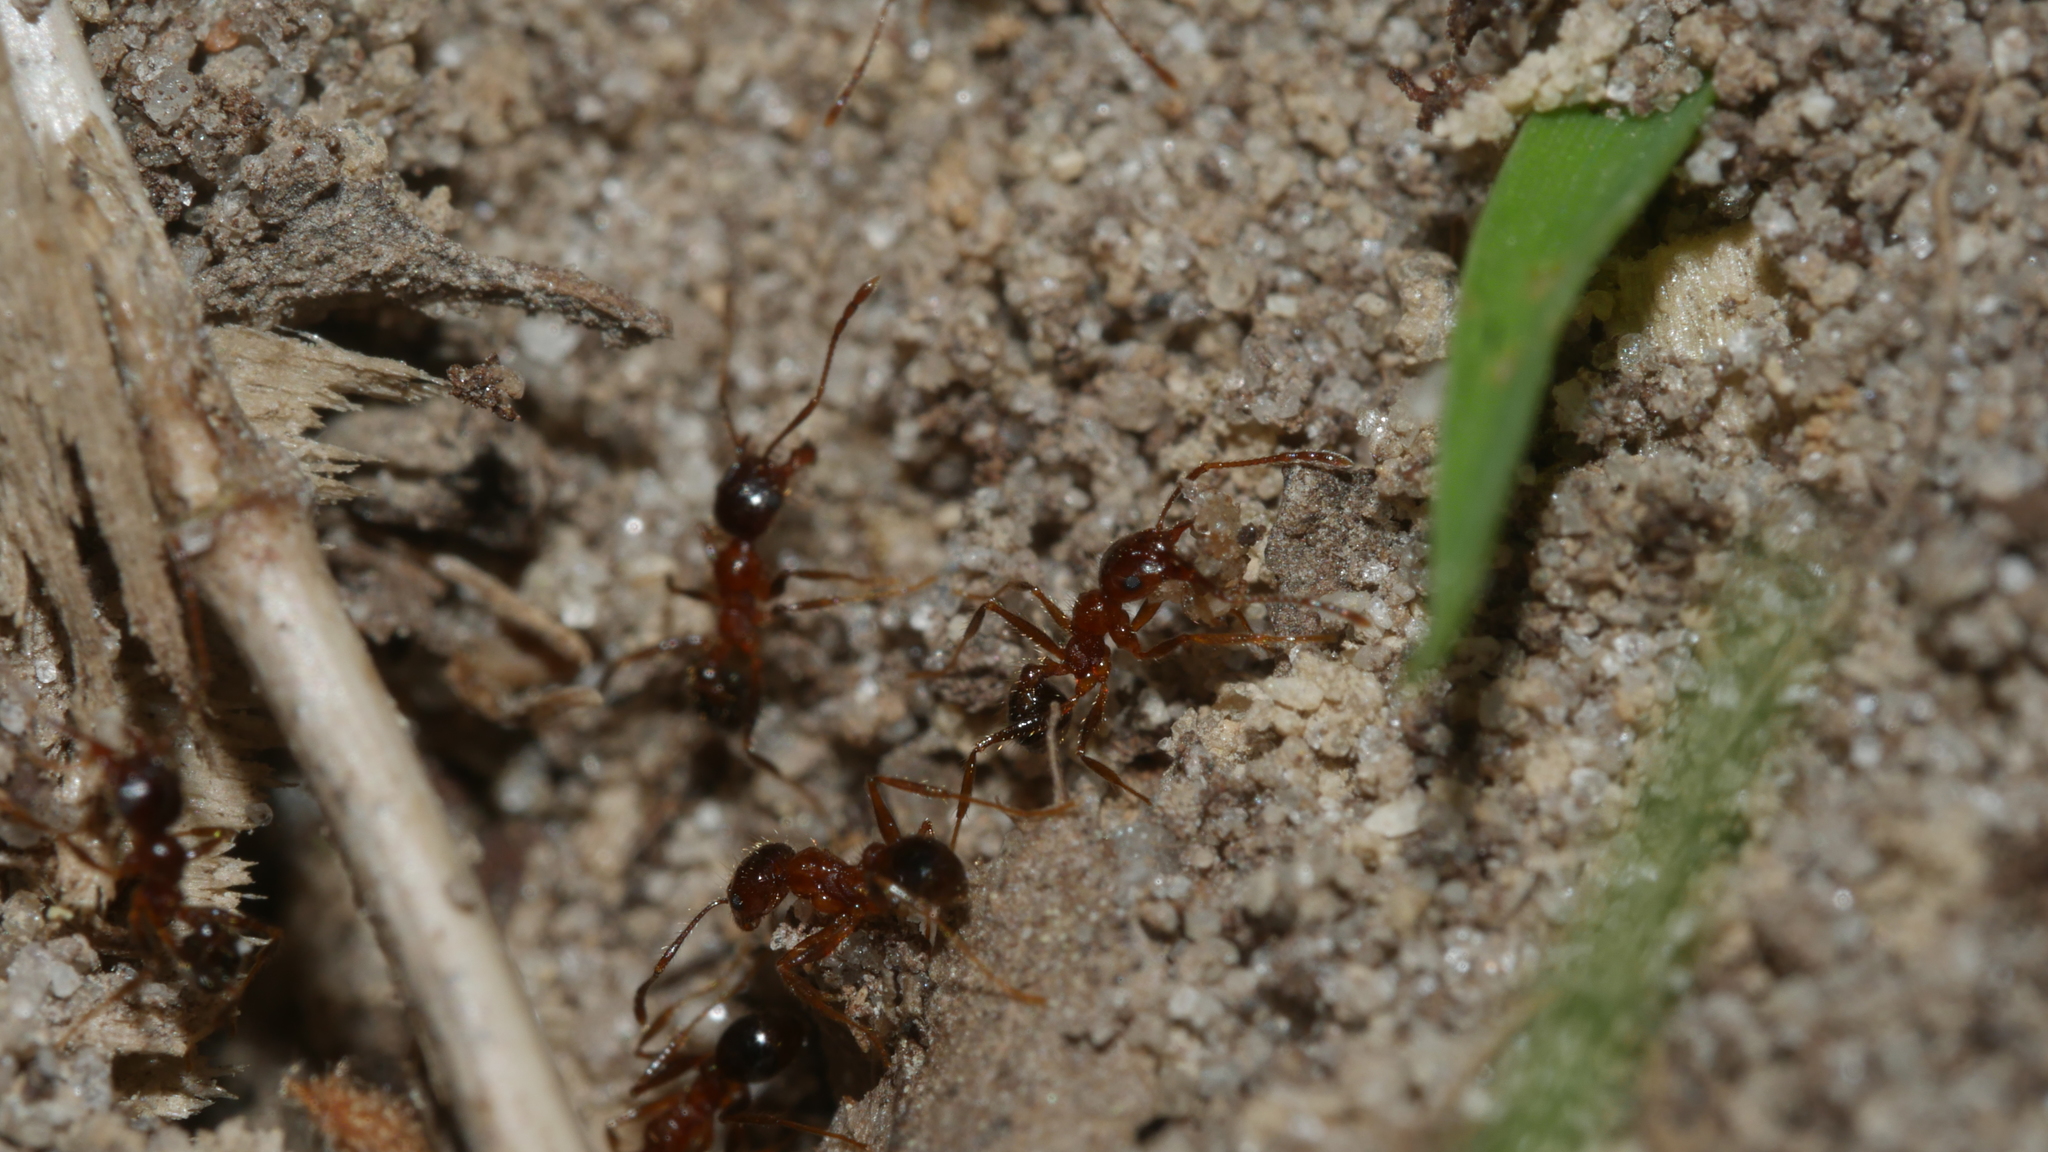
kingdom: Animalia
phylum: Arthropoda
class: Insecta
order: Hymenoptera
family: Formicidae
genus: Pheidole
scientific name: Pheidole dentata
